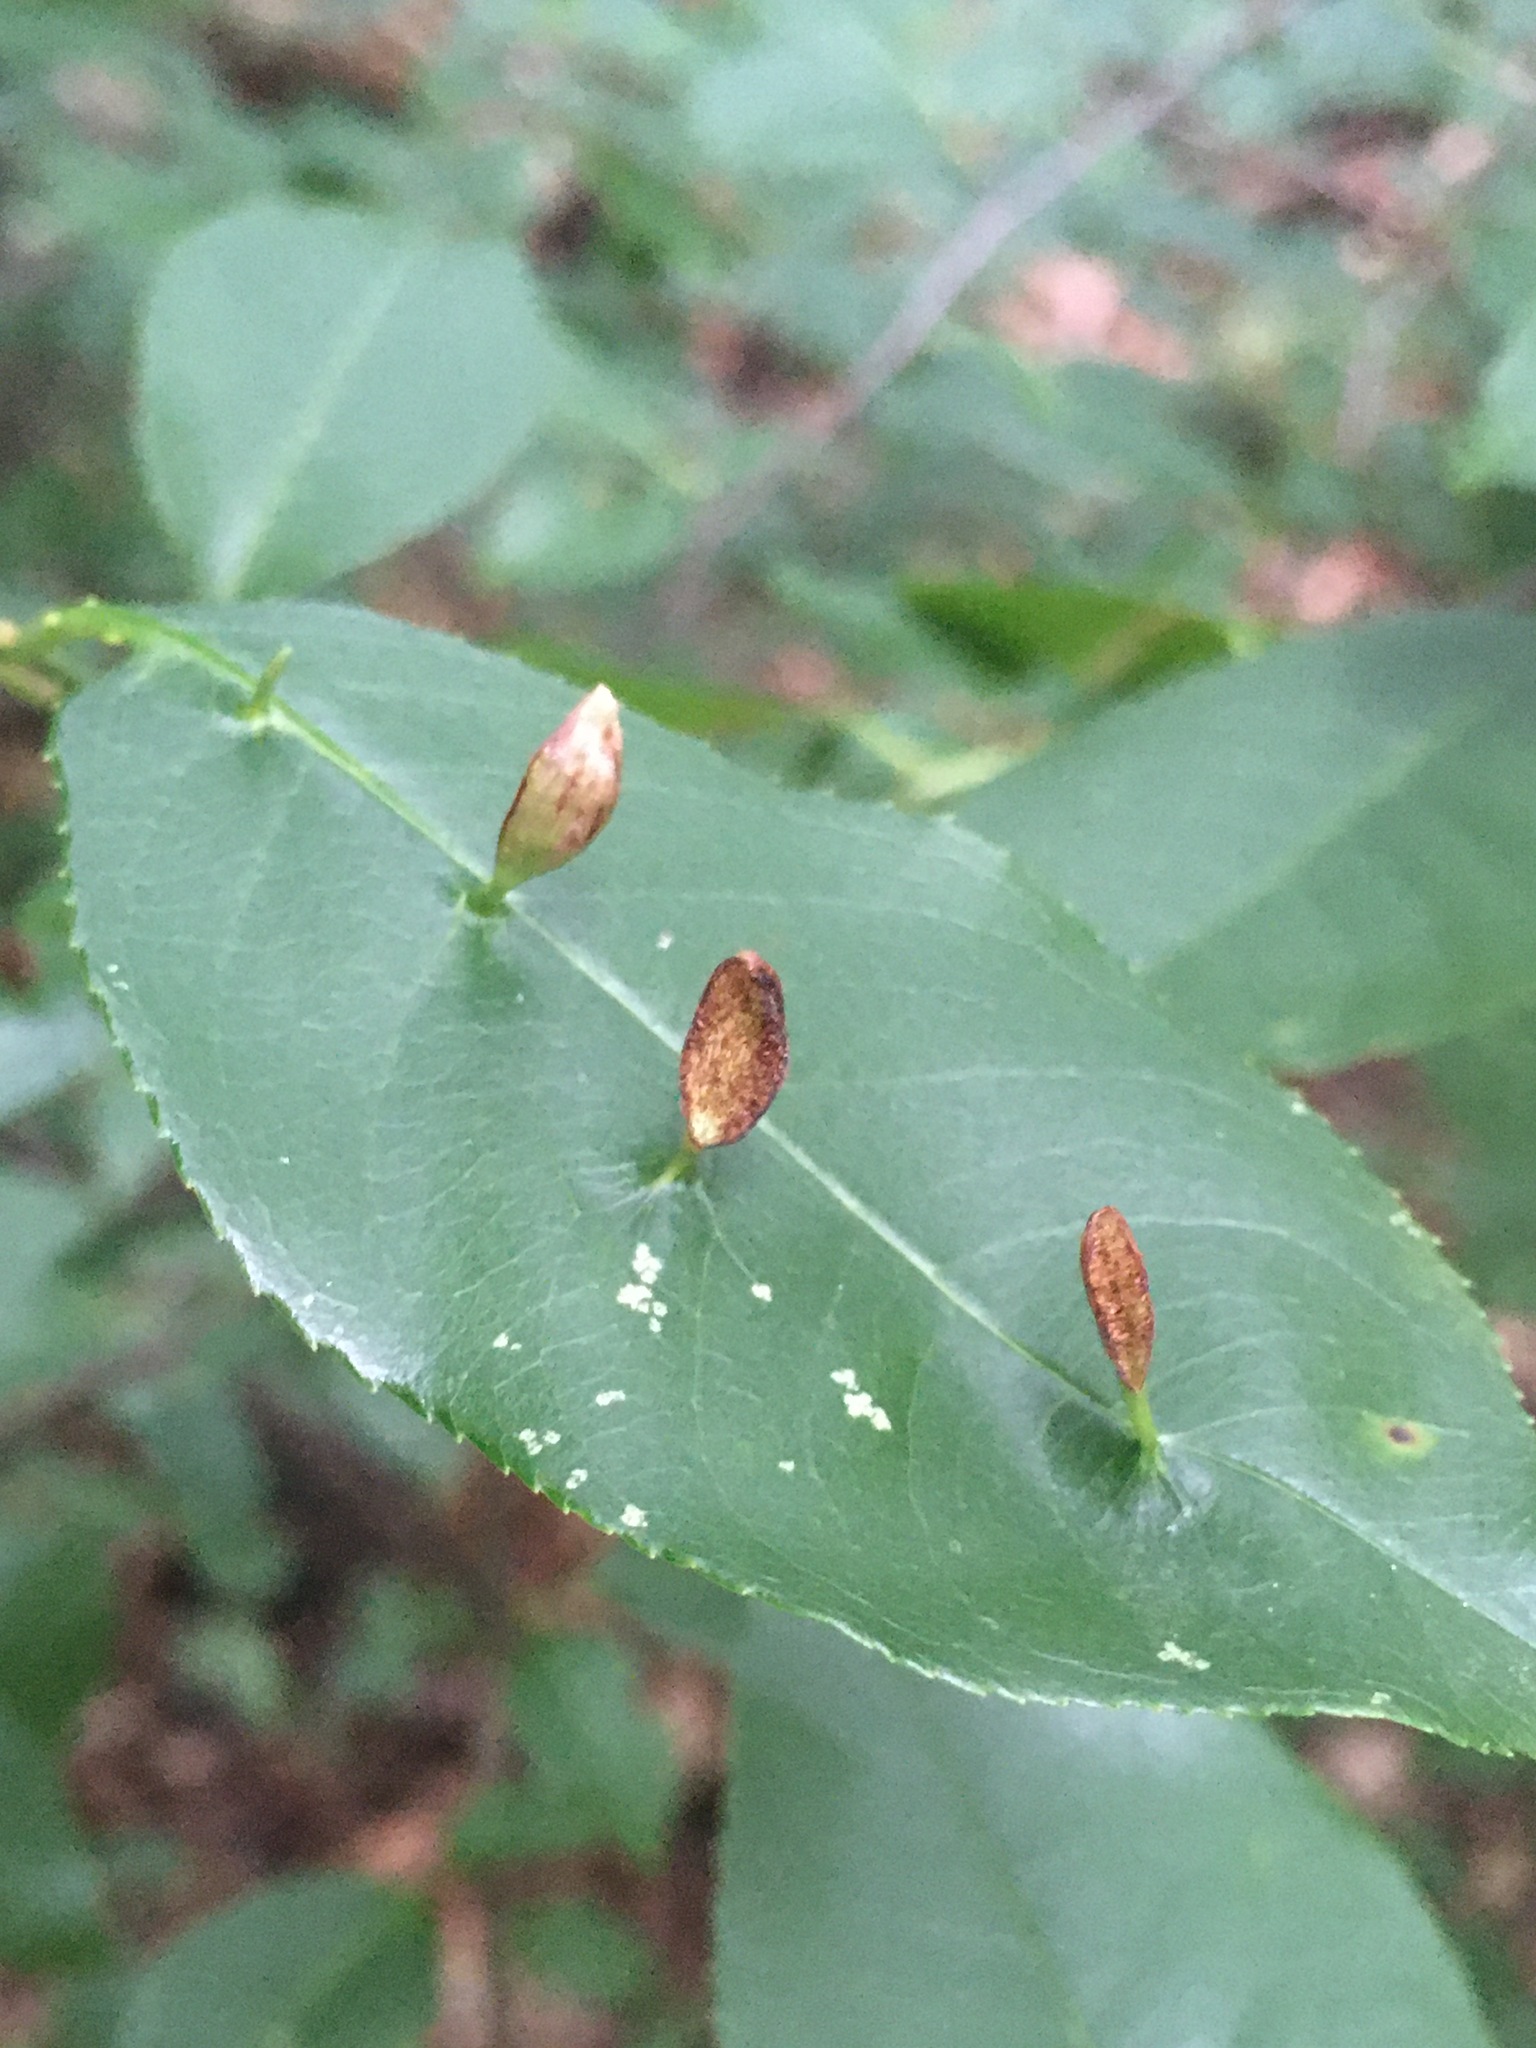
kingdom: Animalia
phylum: Arthropoda
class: Arachnida
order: Trombidiformes
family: Eriophyidae
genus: Eriophyes
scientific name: Eriophyes
